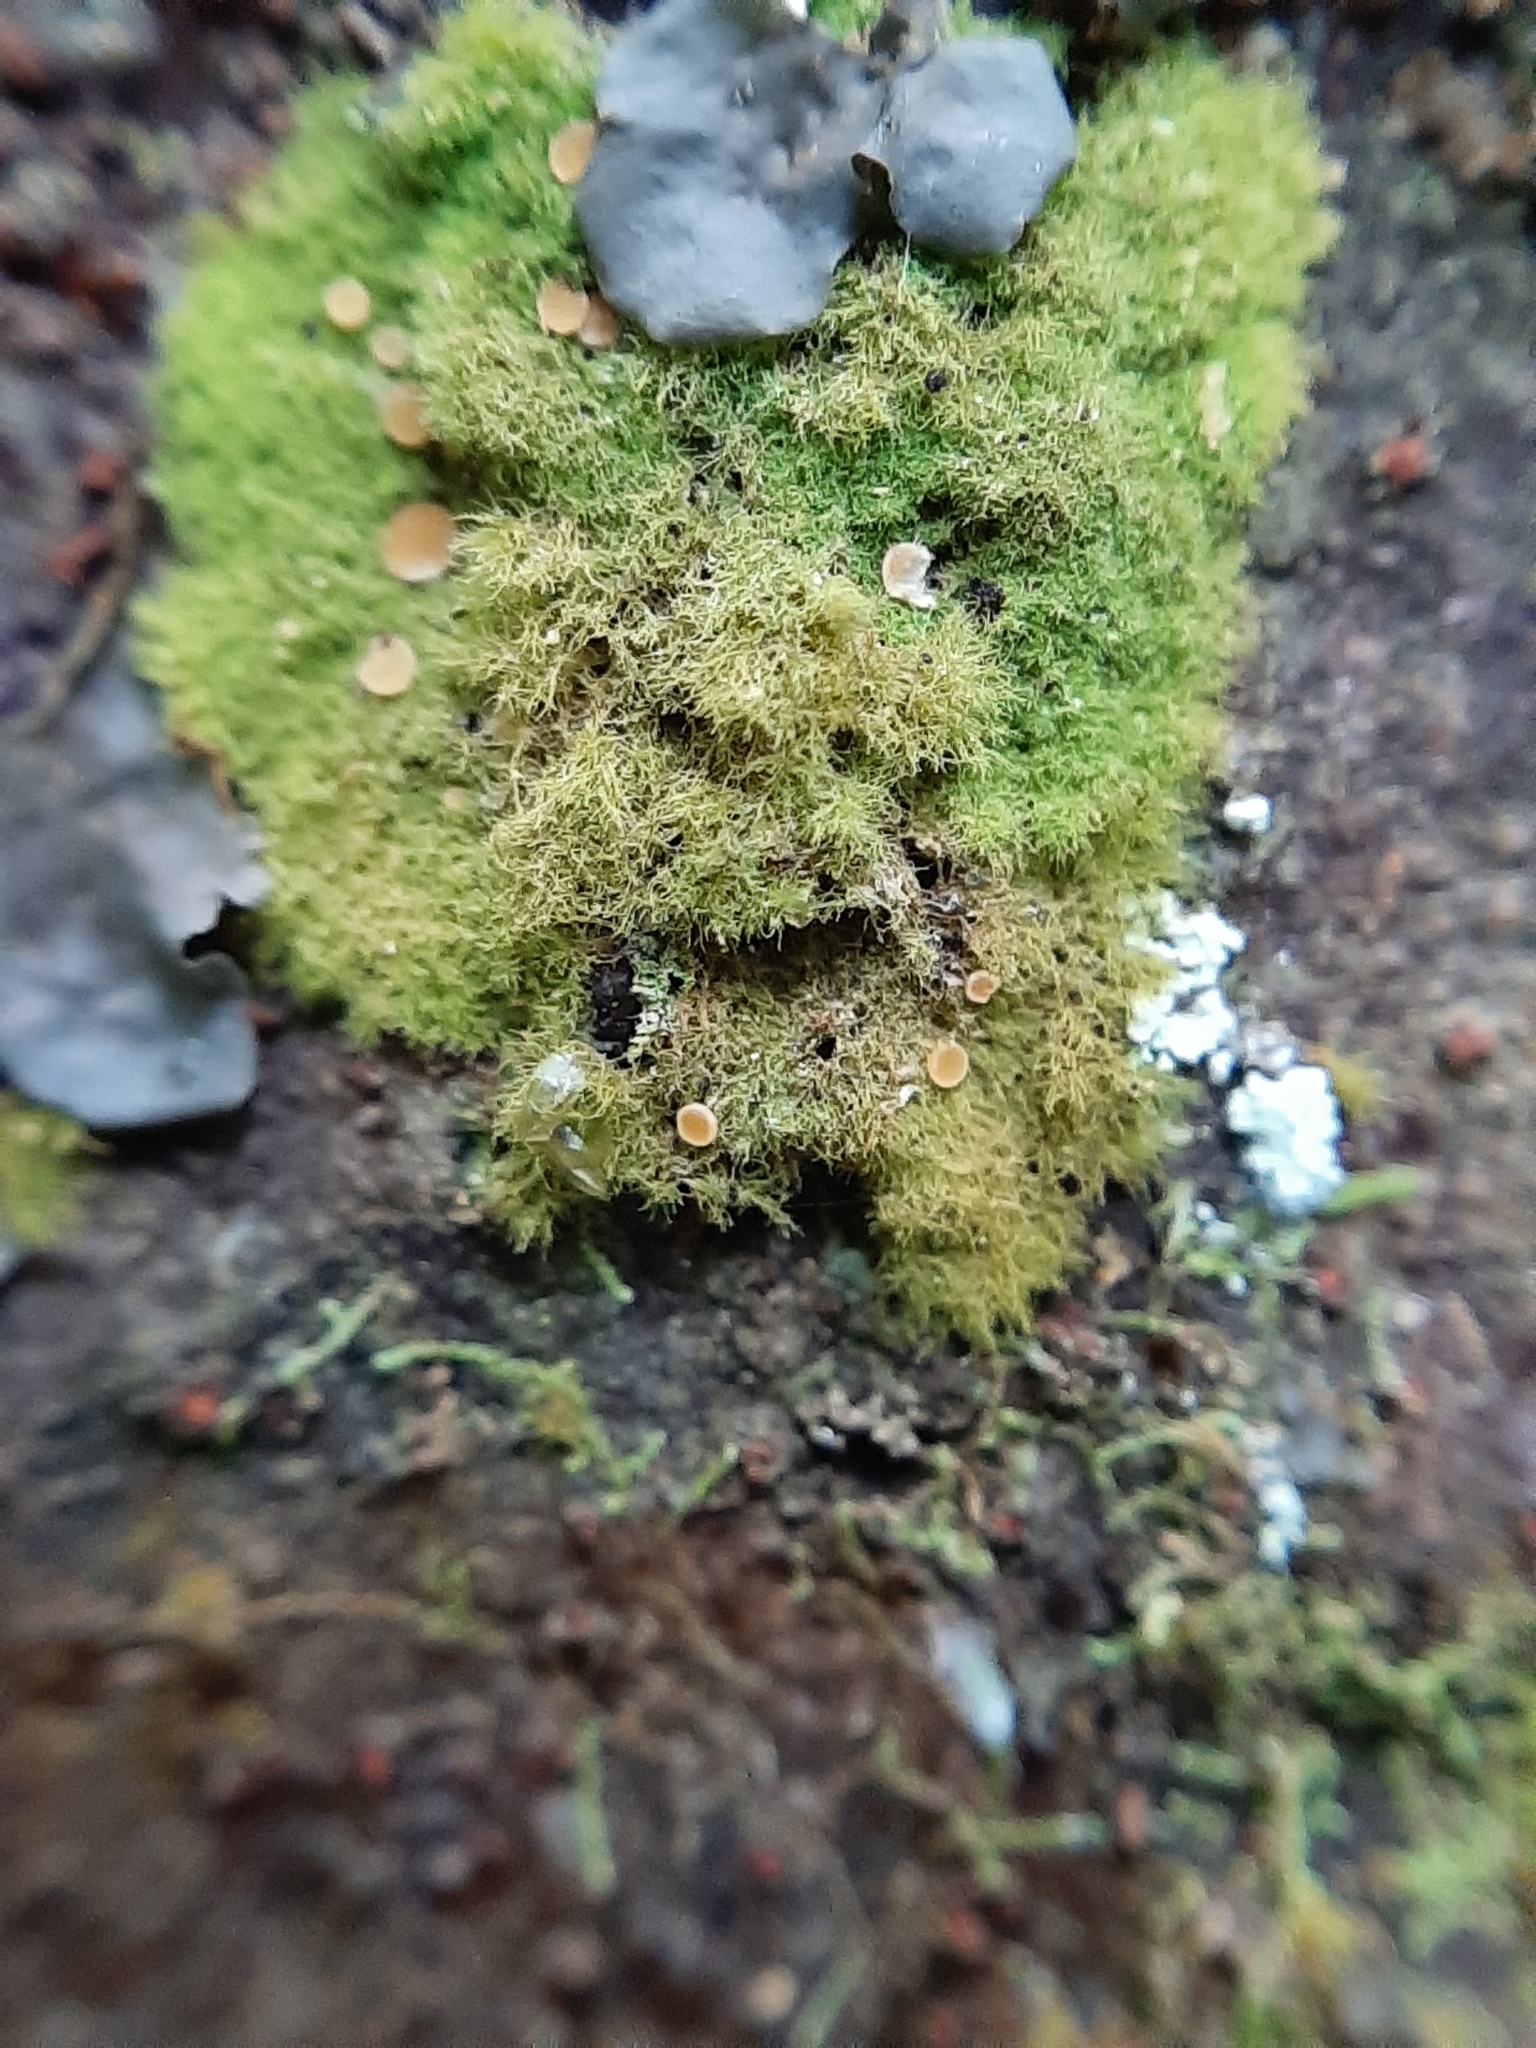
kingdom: Fungi
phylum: Ascomycota
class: Lecanoromycetes
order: Ostropales
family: Coenogoniaceae
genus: Coenogonium
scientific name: Coenogonium implexum
